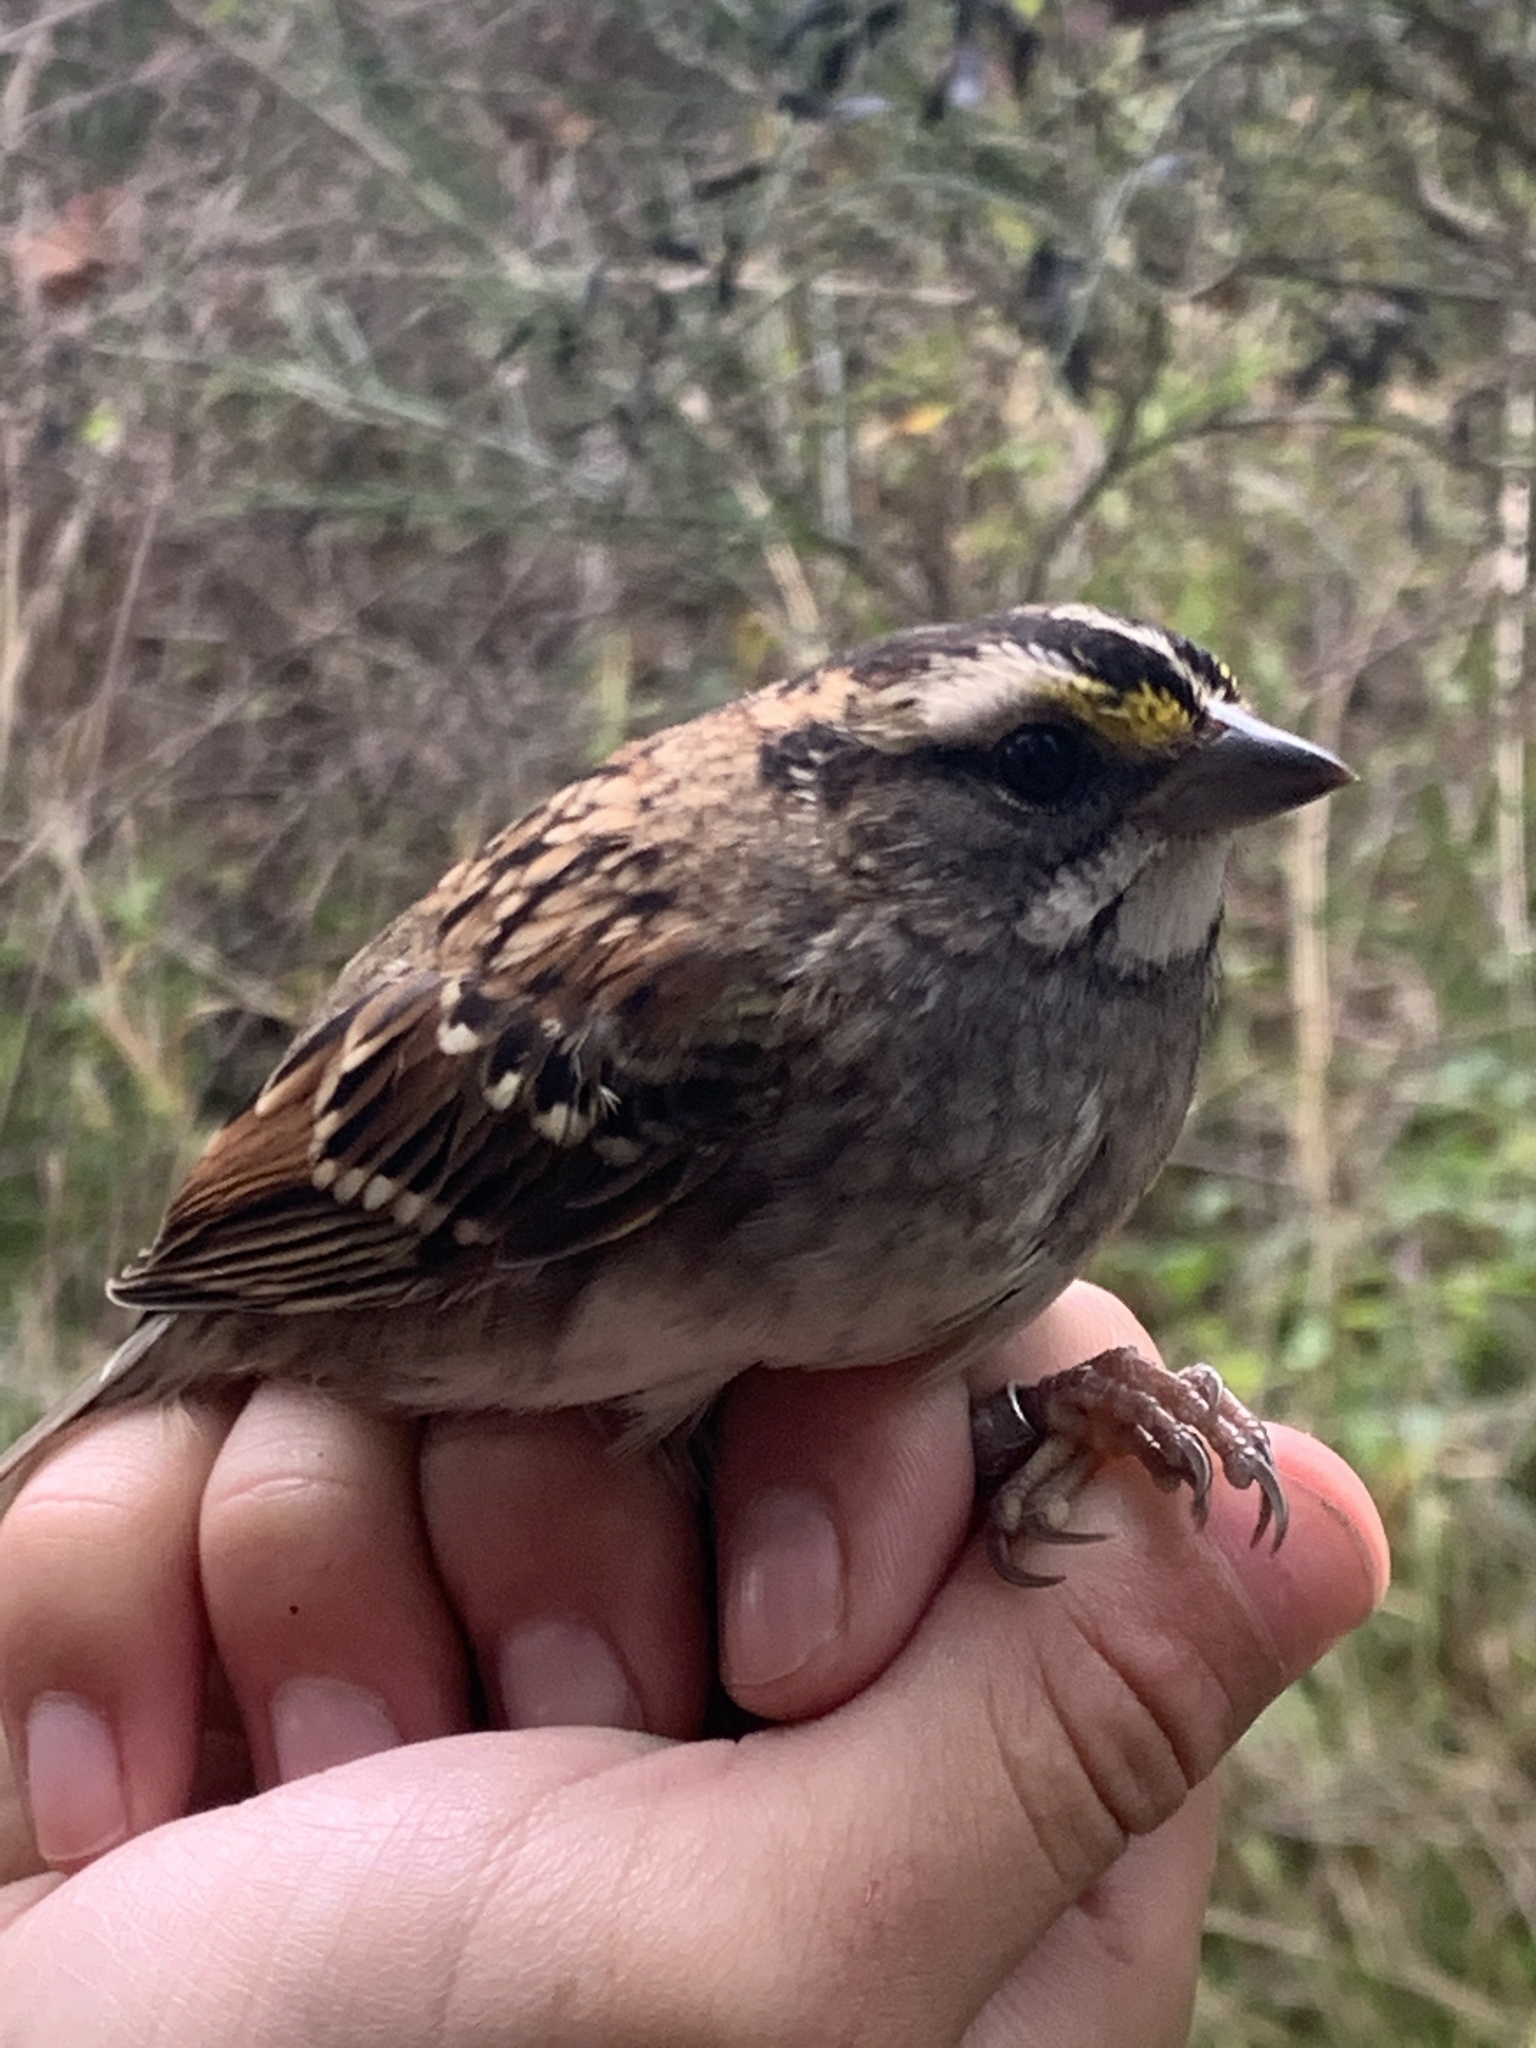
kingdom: Animalia
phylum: Chordata
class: Aves
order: Passeriformes
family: Passerellidae
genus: Zonotrichia
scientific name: Zonotrichia albicollis
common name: White-throated sparrow
